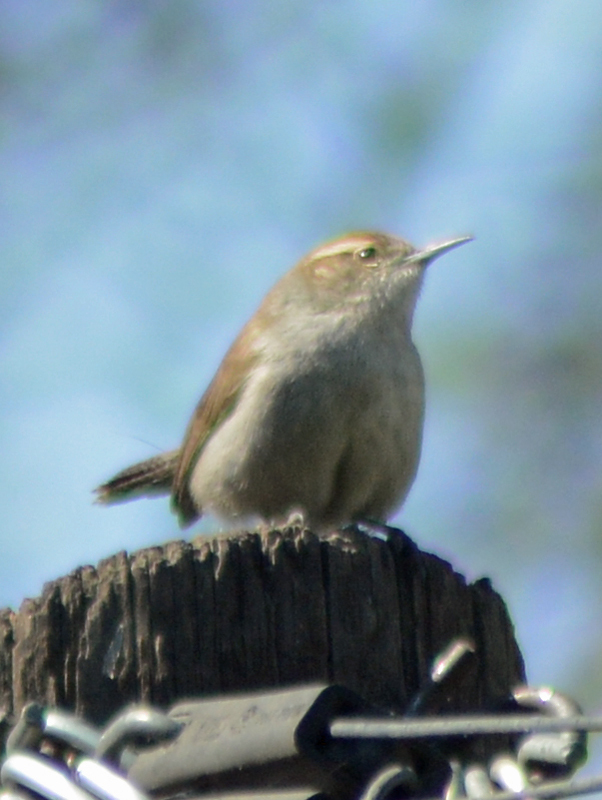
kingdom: Animalia
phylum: Chordata
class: Aves
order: Passeriformes
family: Troglodytidae
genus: Thryomanes
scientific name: Thryomanes bewickii
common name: Bewick's wren
